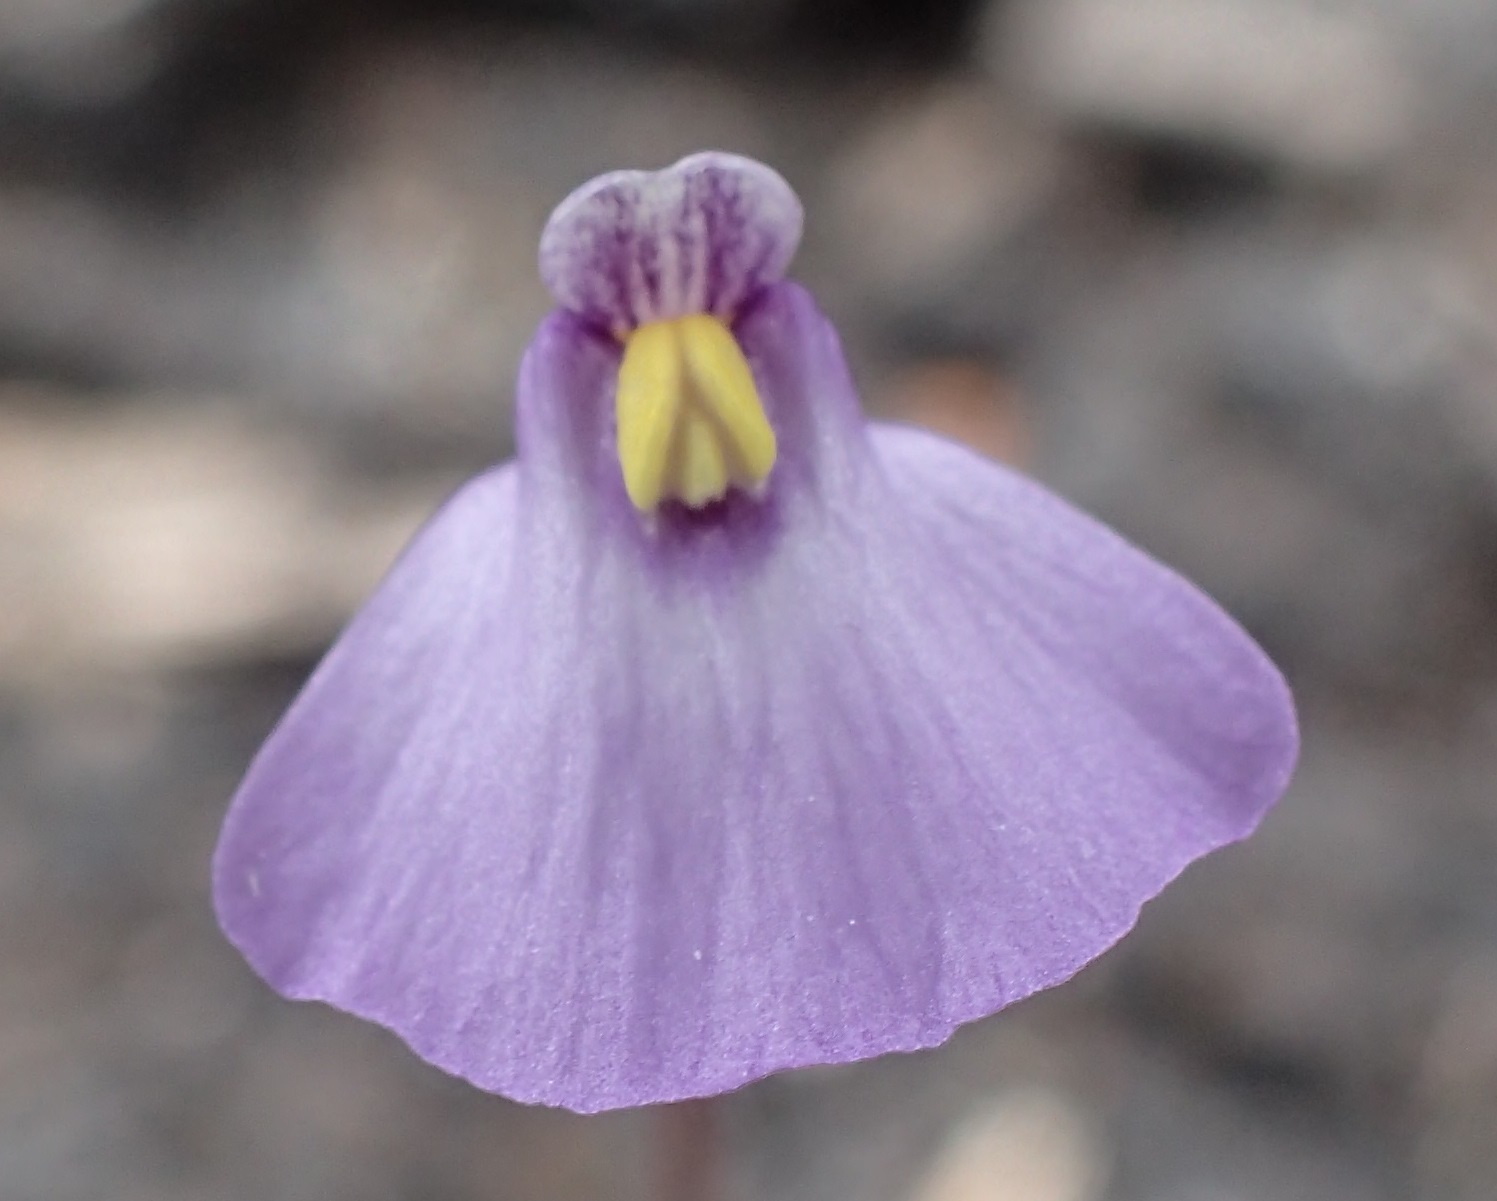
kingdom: Plantae
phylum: Tracheophyta
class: Magnoliopsida
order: Lamiales
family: Lentibulariaceae
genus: Utricularia
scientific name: Utricularia barkeri
